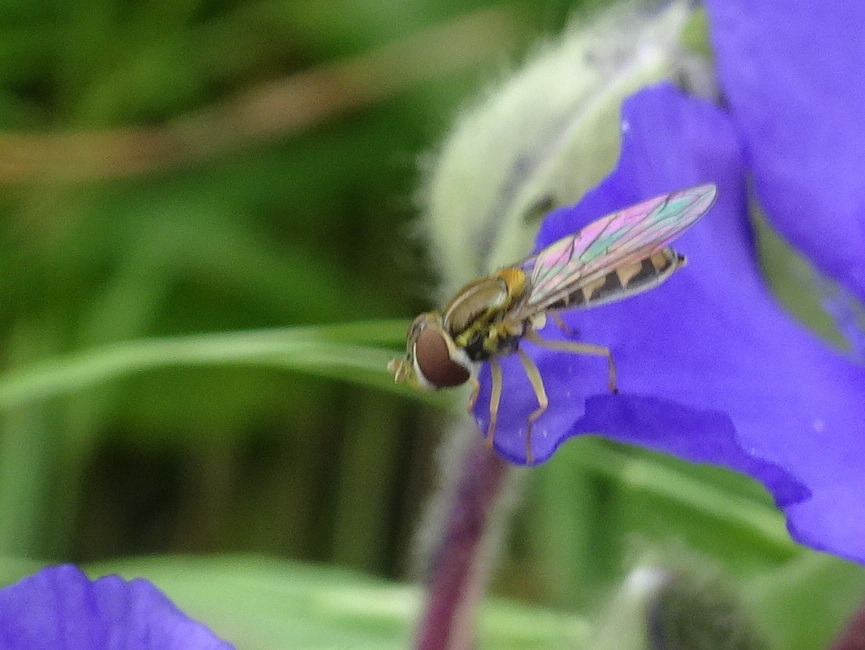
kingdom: Animalia
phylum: Arthropoda
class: Insecta
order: Diptera
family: Syrphidae
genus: Toxomerus
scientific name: Toxomerus marginatus
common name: Syrphid fly
